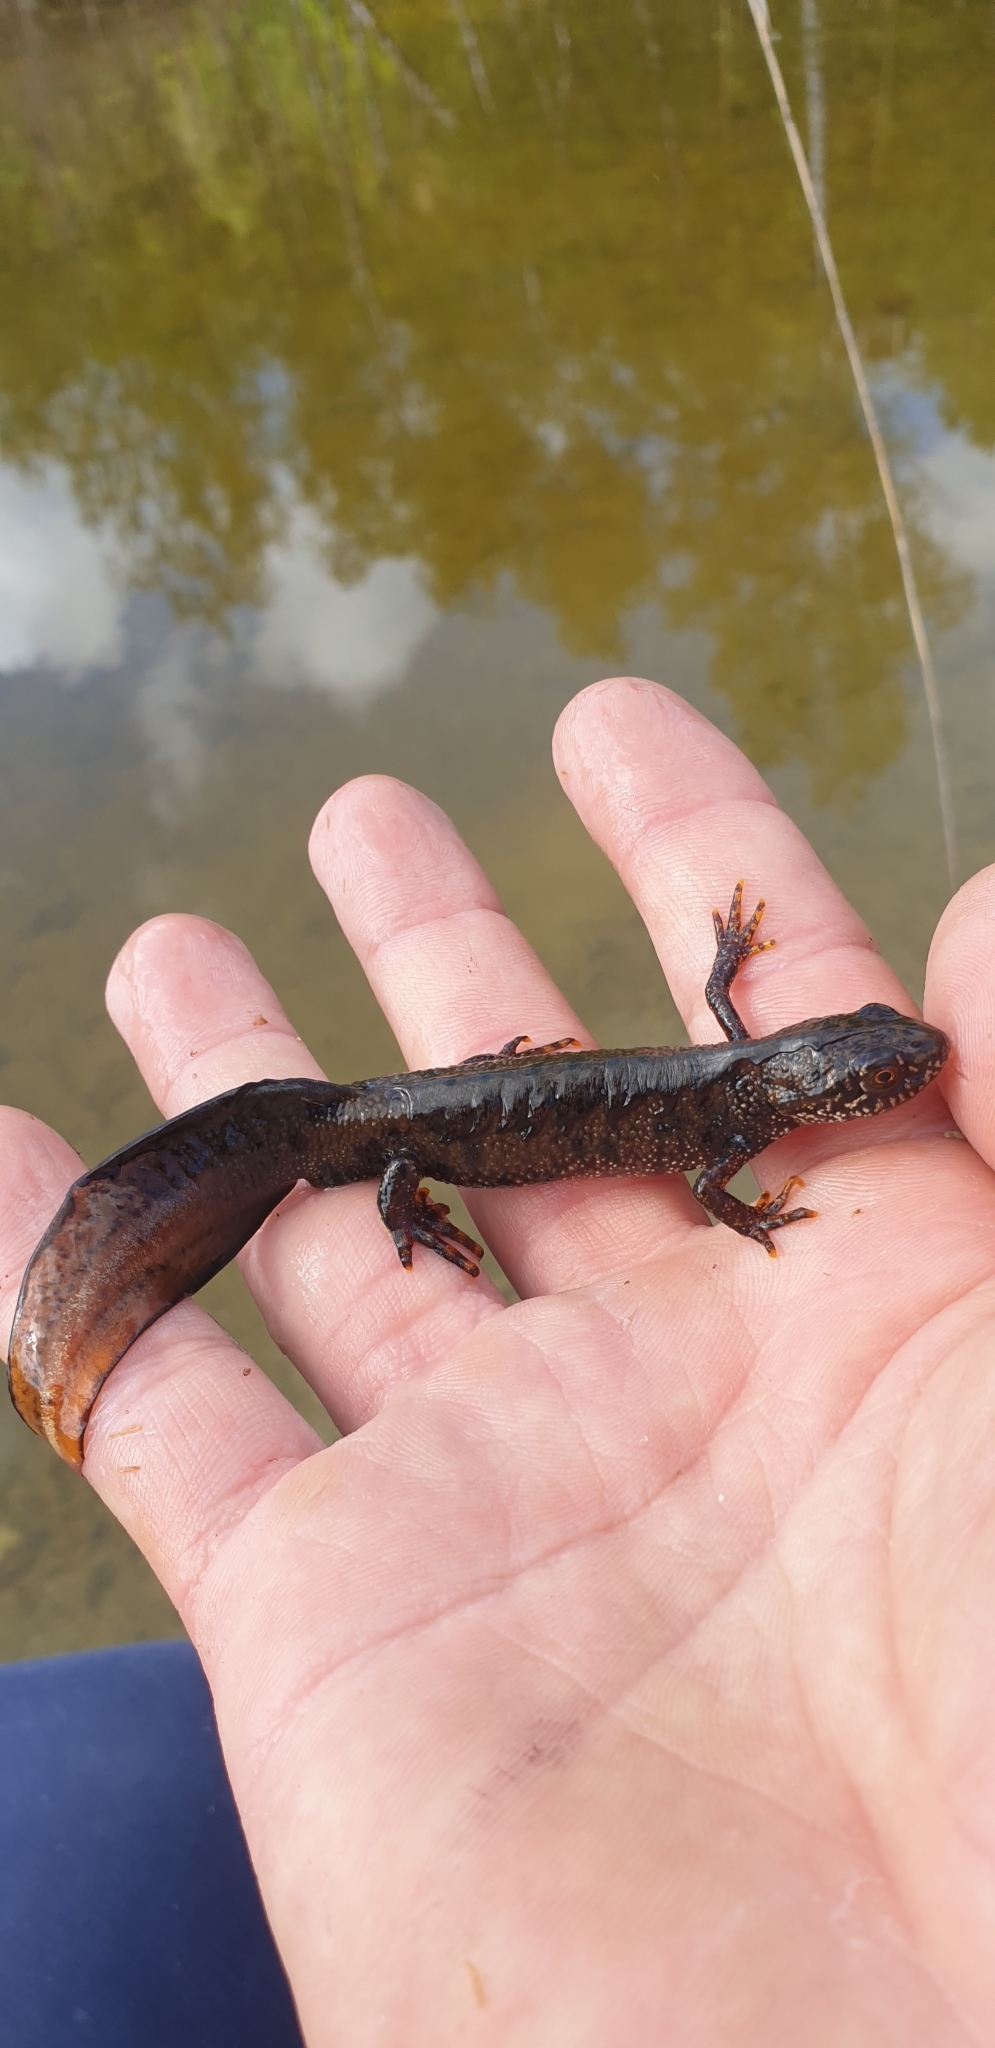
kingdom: Animalia
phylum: Chordata
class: Amphibia
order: Caudata
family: Salamandridae
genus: Triturus
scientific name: Triturus cristatus
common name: Crested newt
